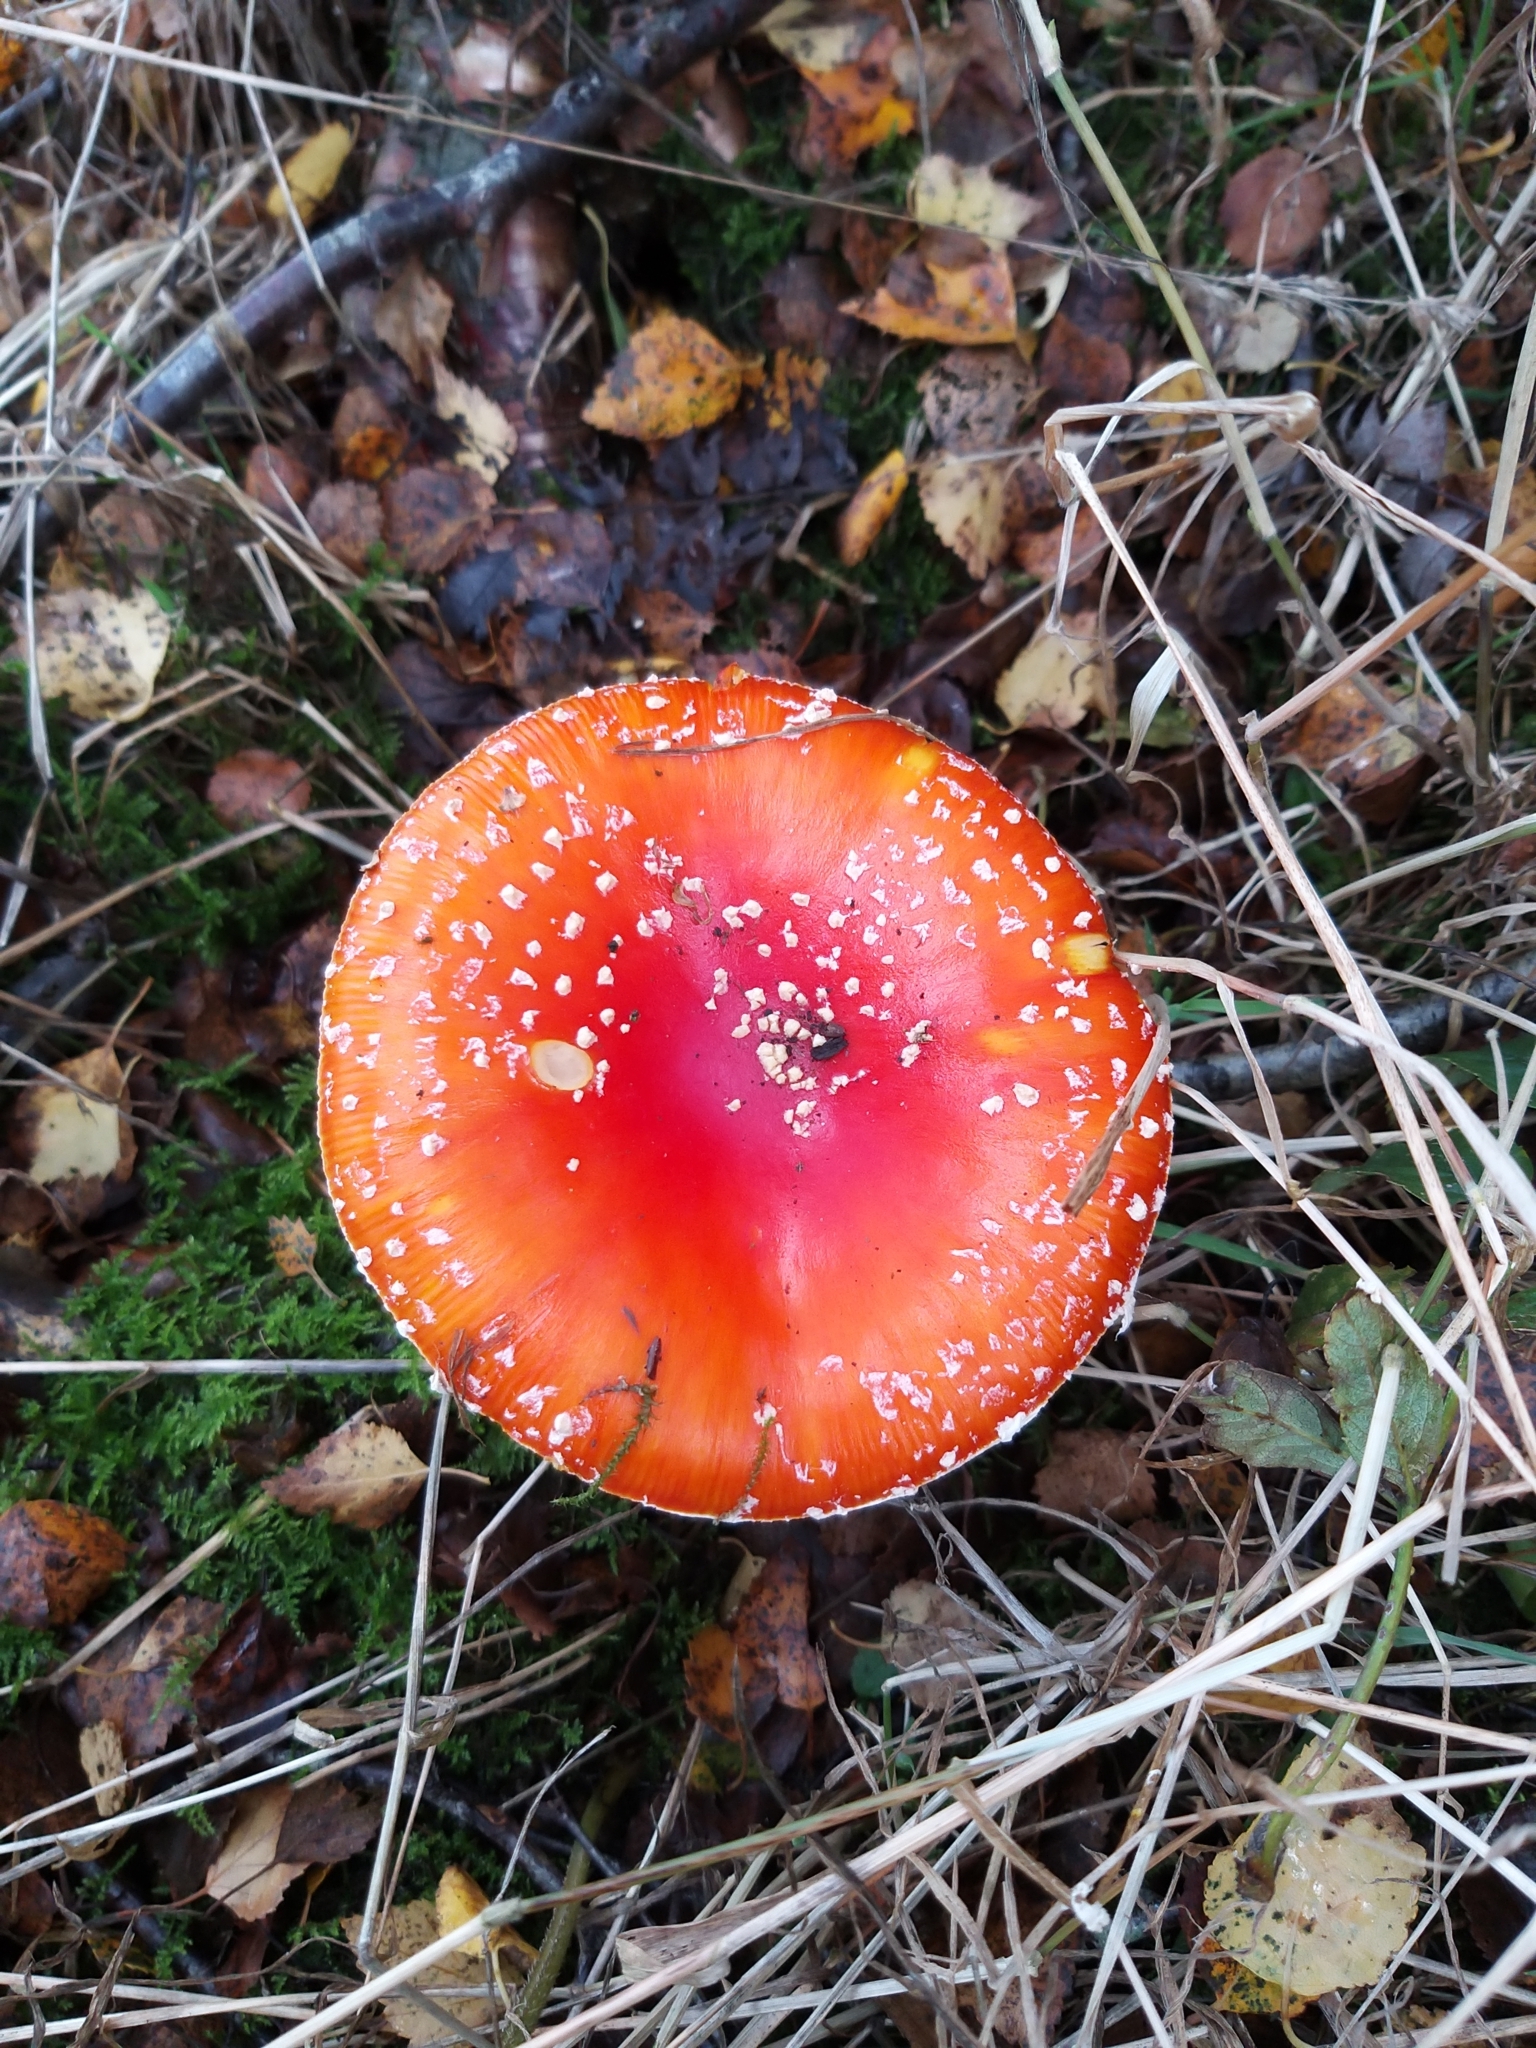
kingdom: Fungi
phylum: Basidiomycota
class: Agaricomycetes
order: Agaricales
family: Amanitaceae
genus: Amanita
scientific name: Amanita muscaria
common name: Fly agaric
